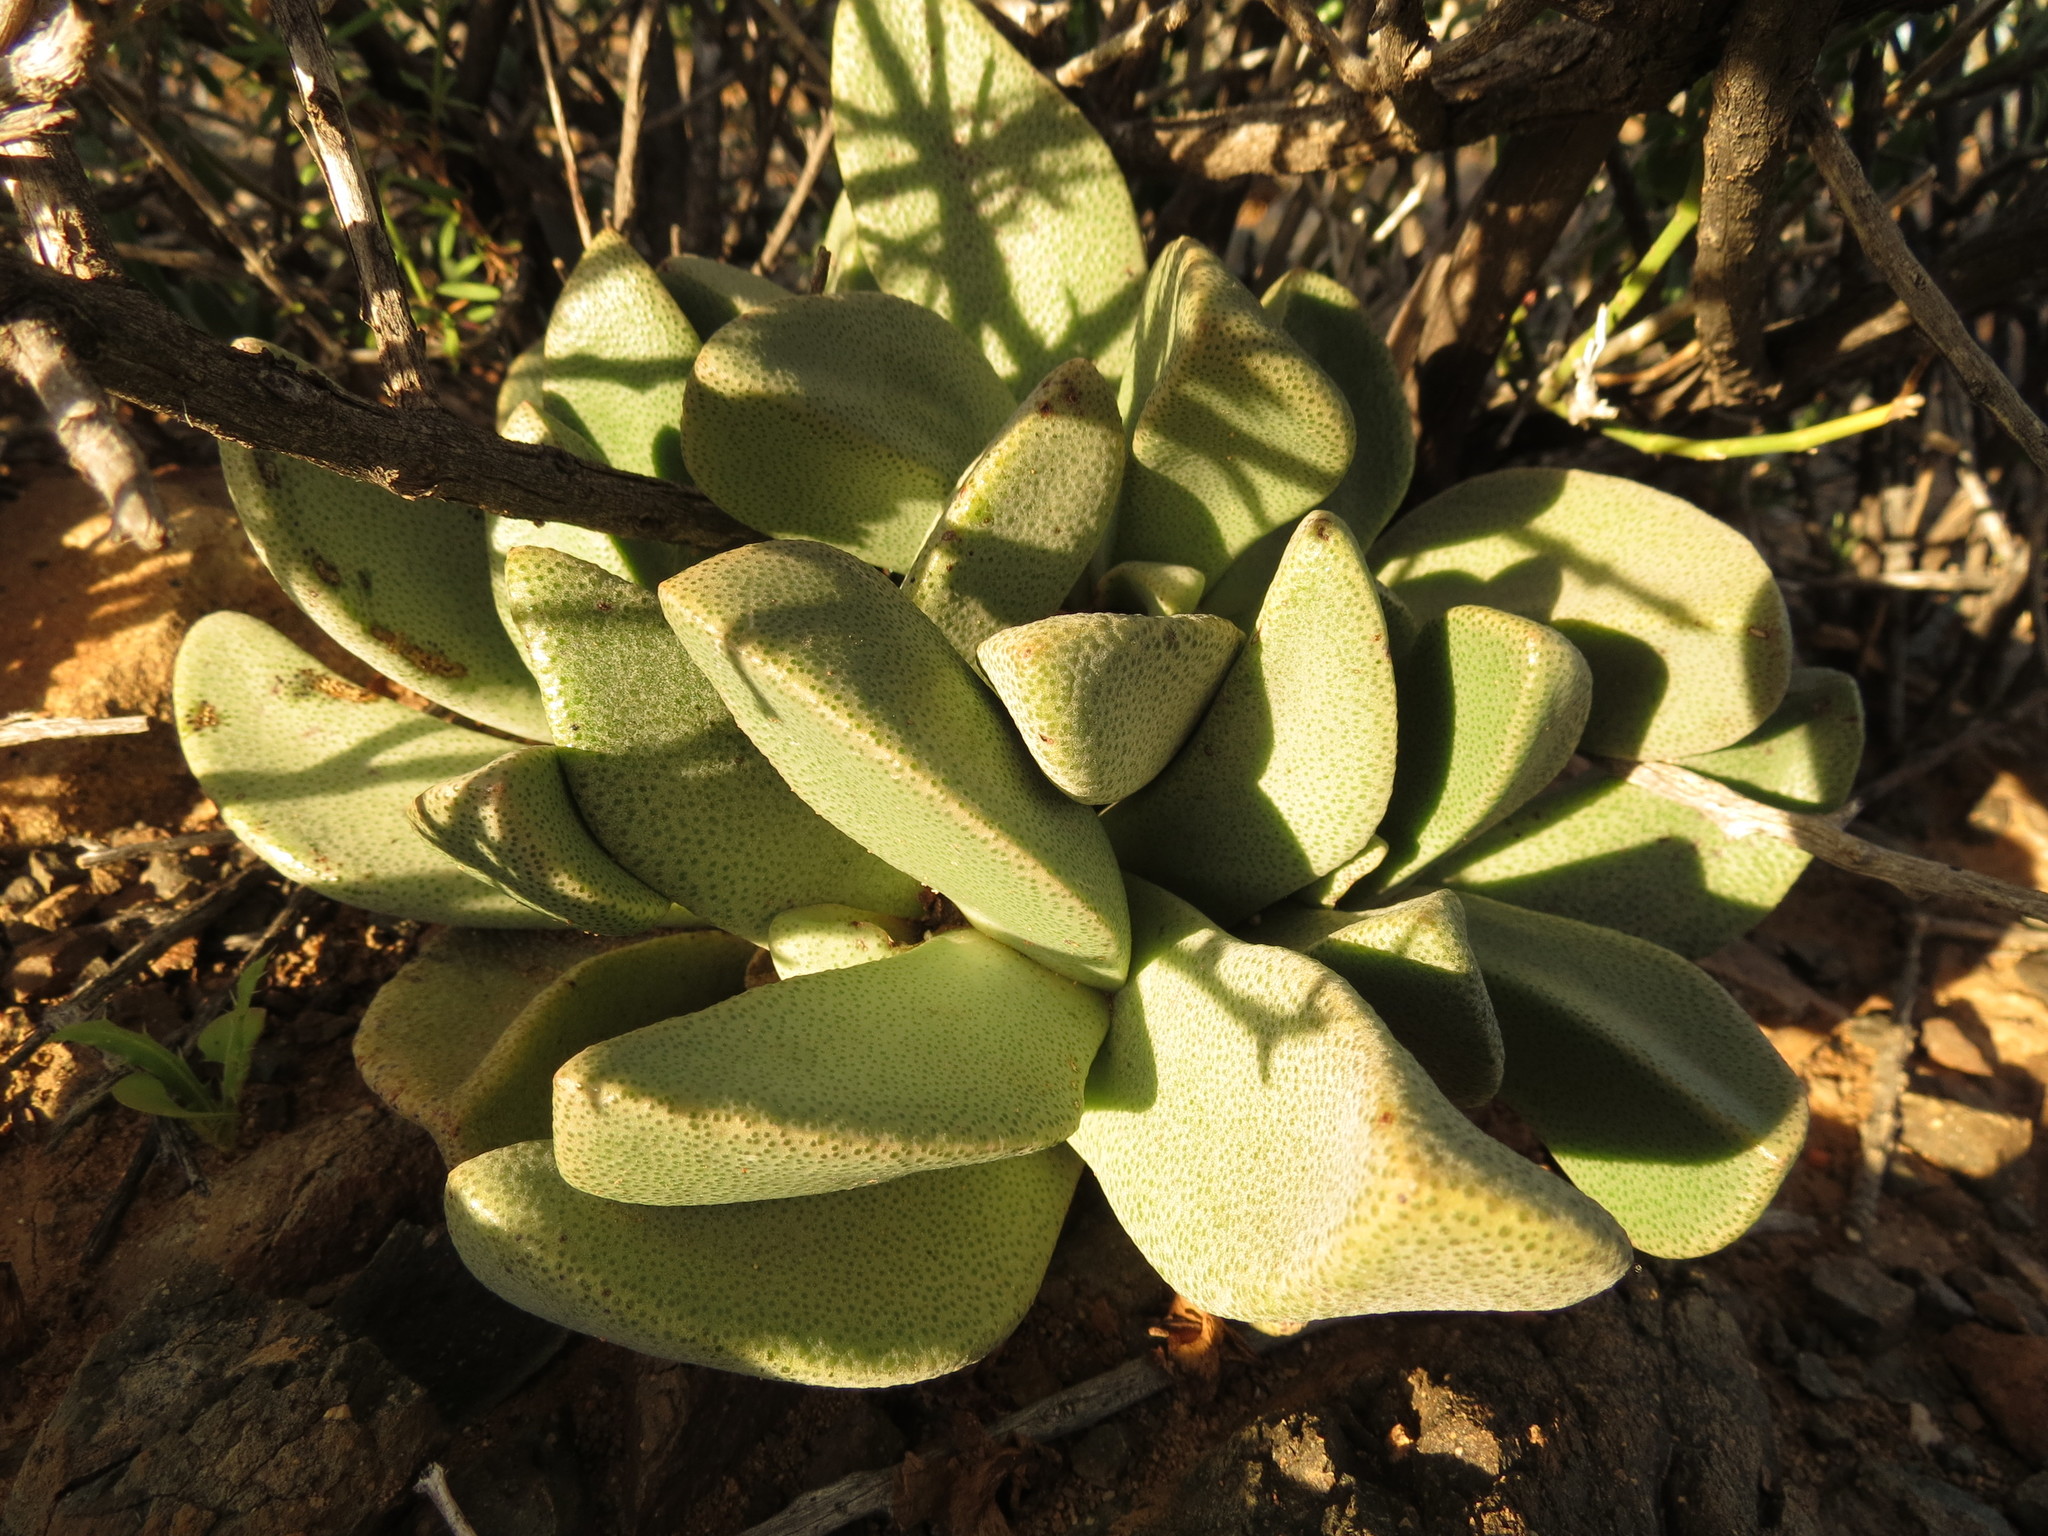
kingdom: Plantae
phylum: Tracheophyta
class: Magnoliopsida
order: Caryophyllales
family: Aizoaceae
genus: Pleiospilos
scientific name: Pleiospilos compactus
